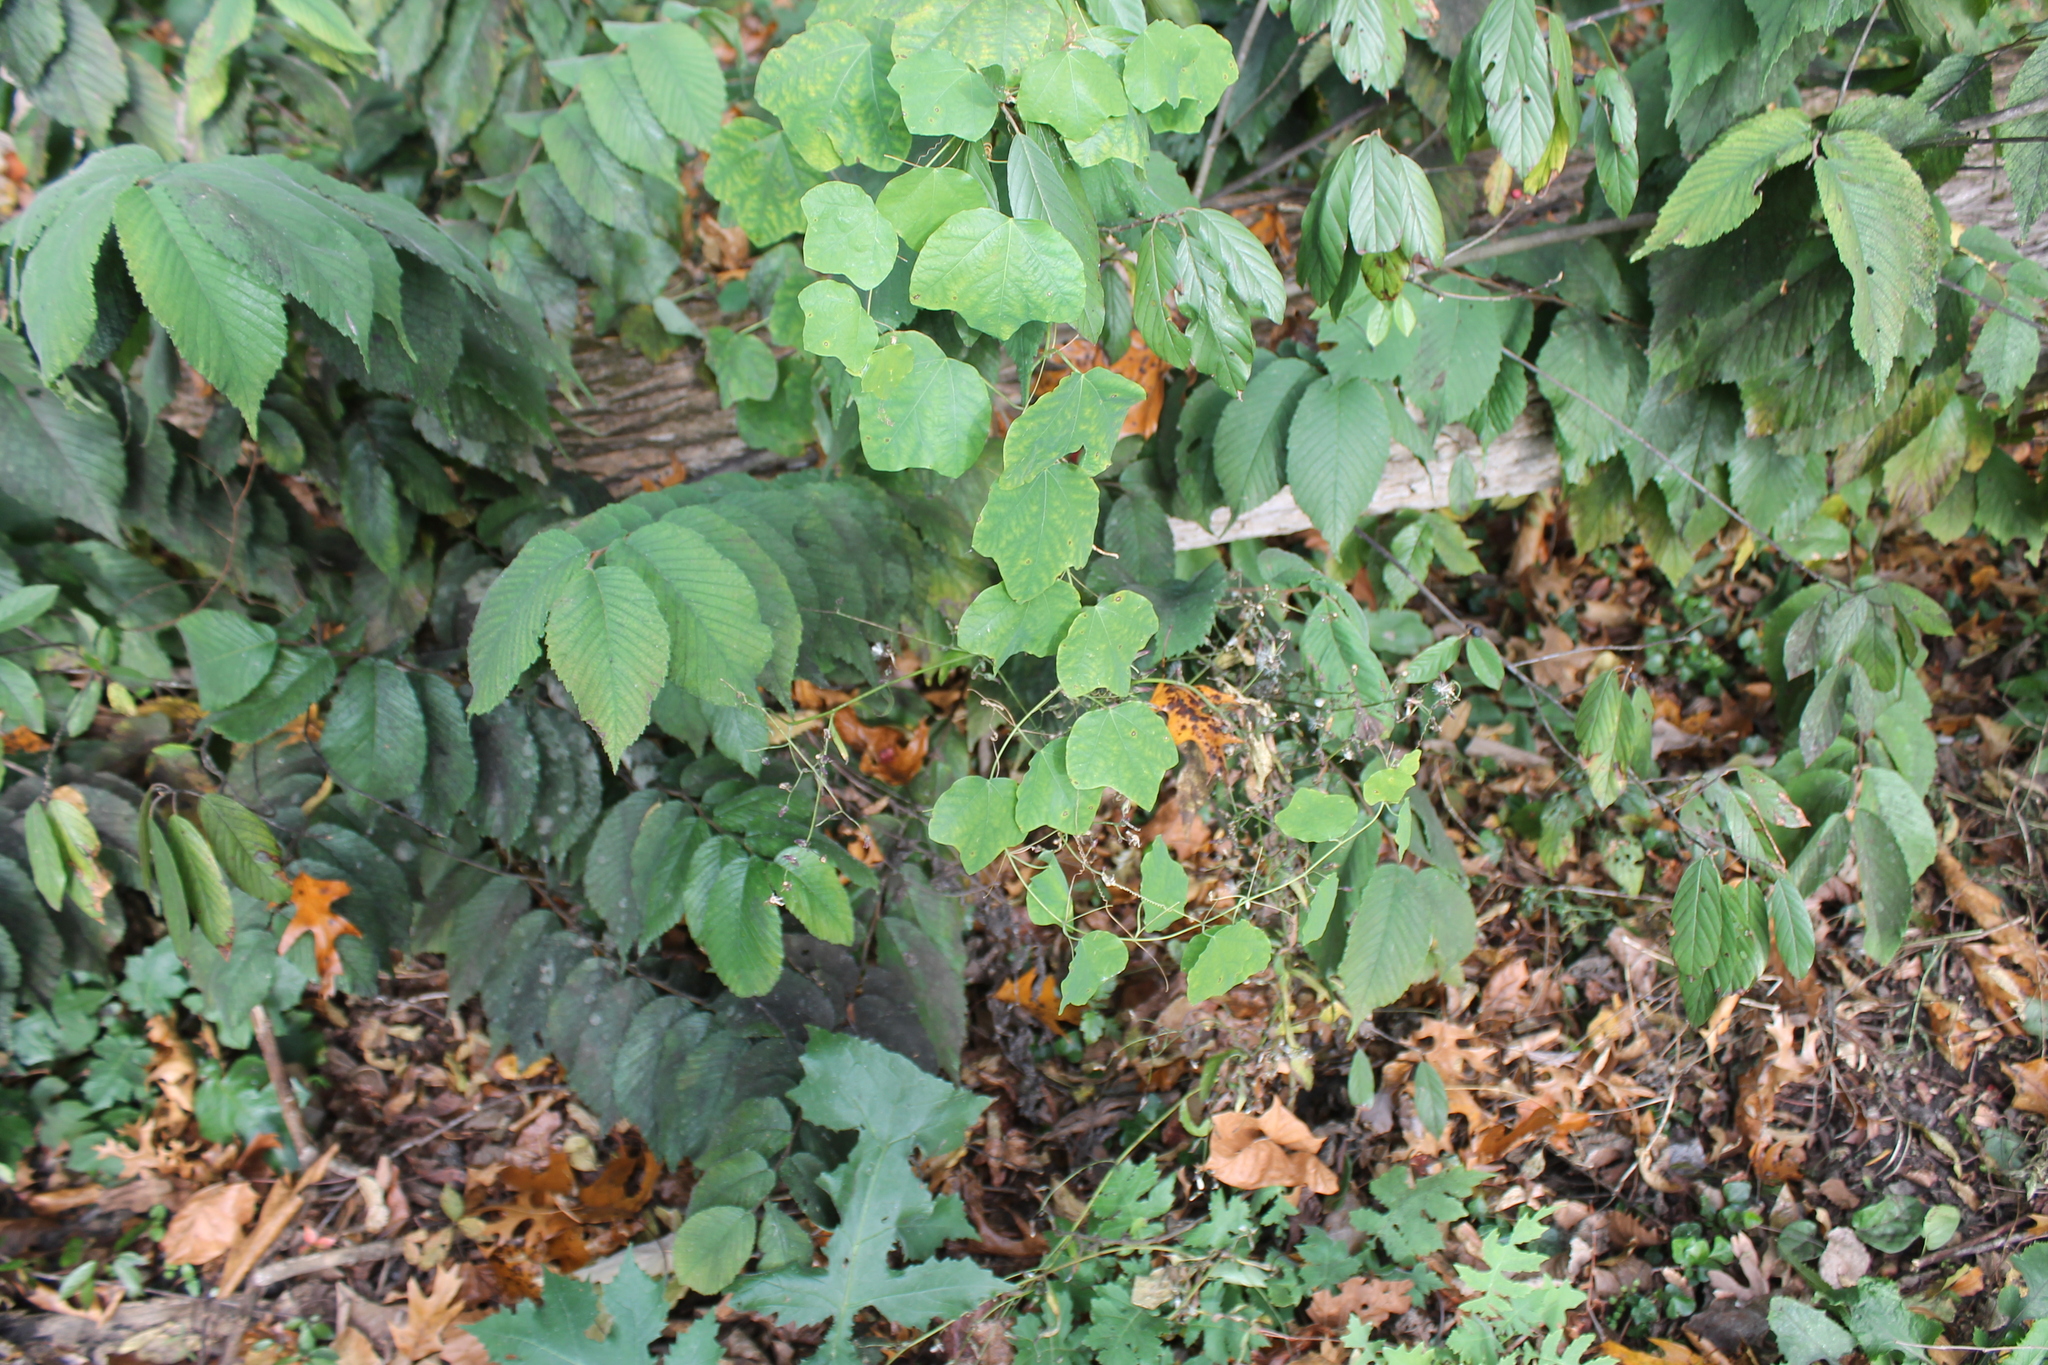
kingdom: Plantae
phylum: Tracheophyta
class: Magnoliopsida
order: Malpighiales
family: Passifloraceae
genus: Passiflora
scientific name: Passiflora lutea
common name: Yellow passionflower
